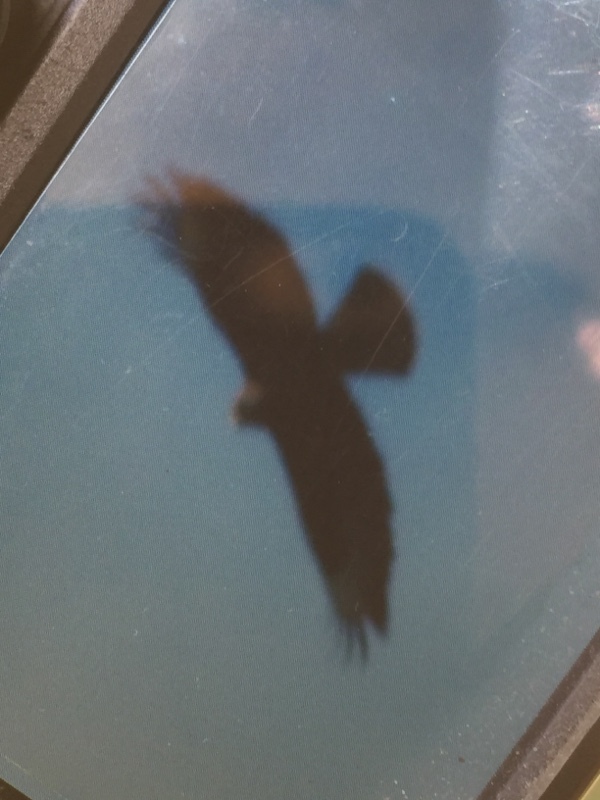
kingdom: Animalia
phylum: Chordata
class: Aves
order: Accipitriformes
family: Accipitridae
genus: Buteo
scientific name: Buteo buteo
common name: Common buzzard
